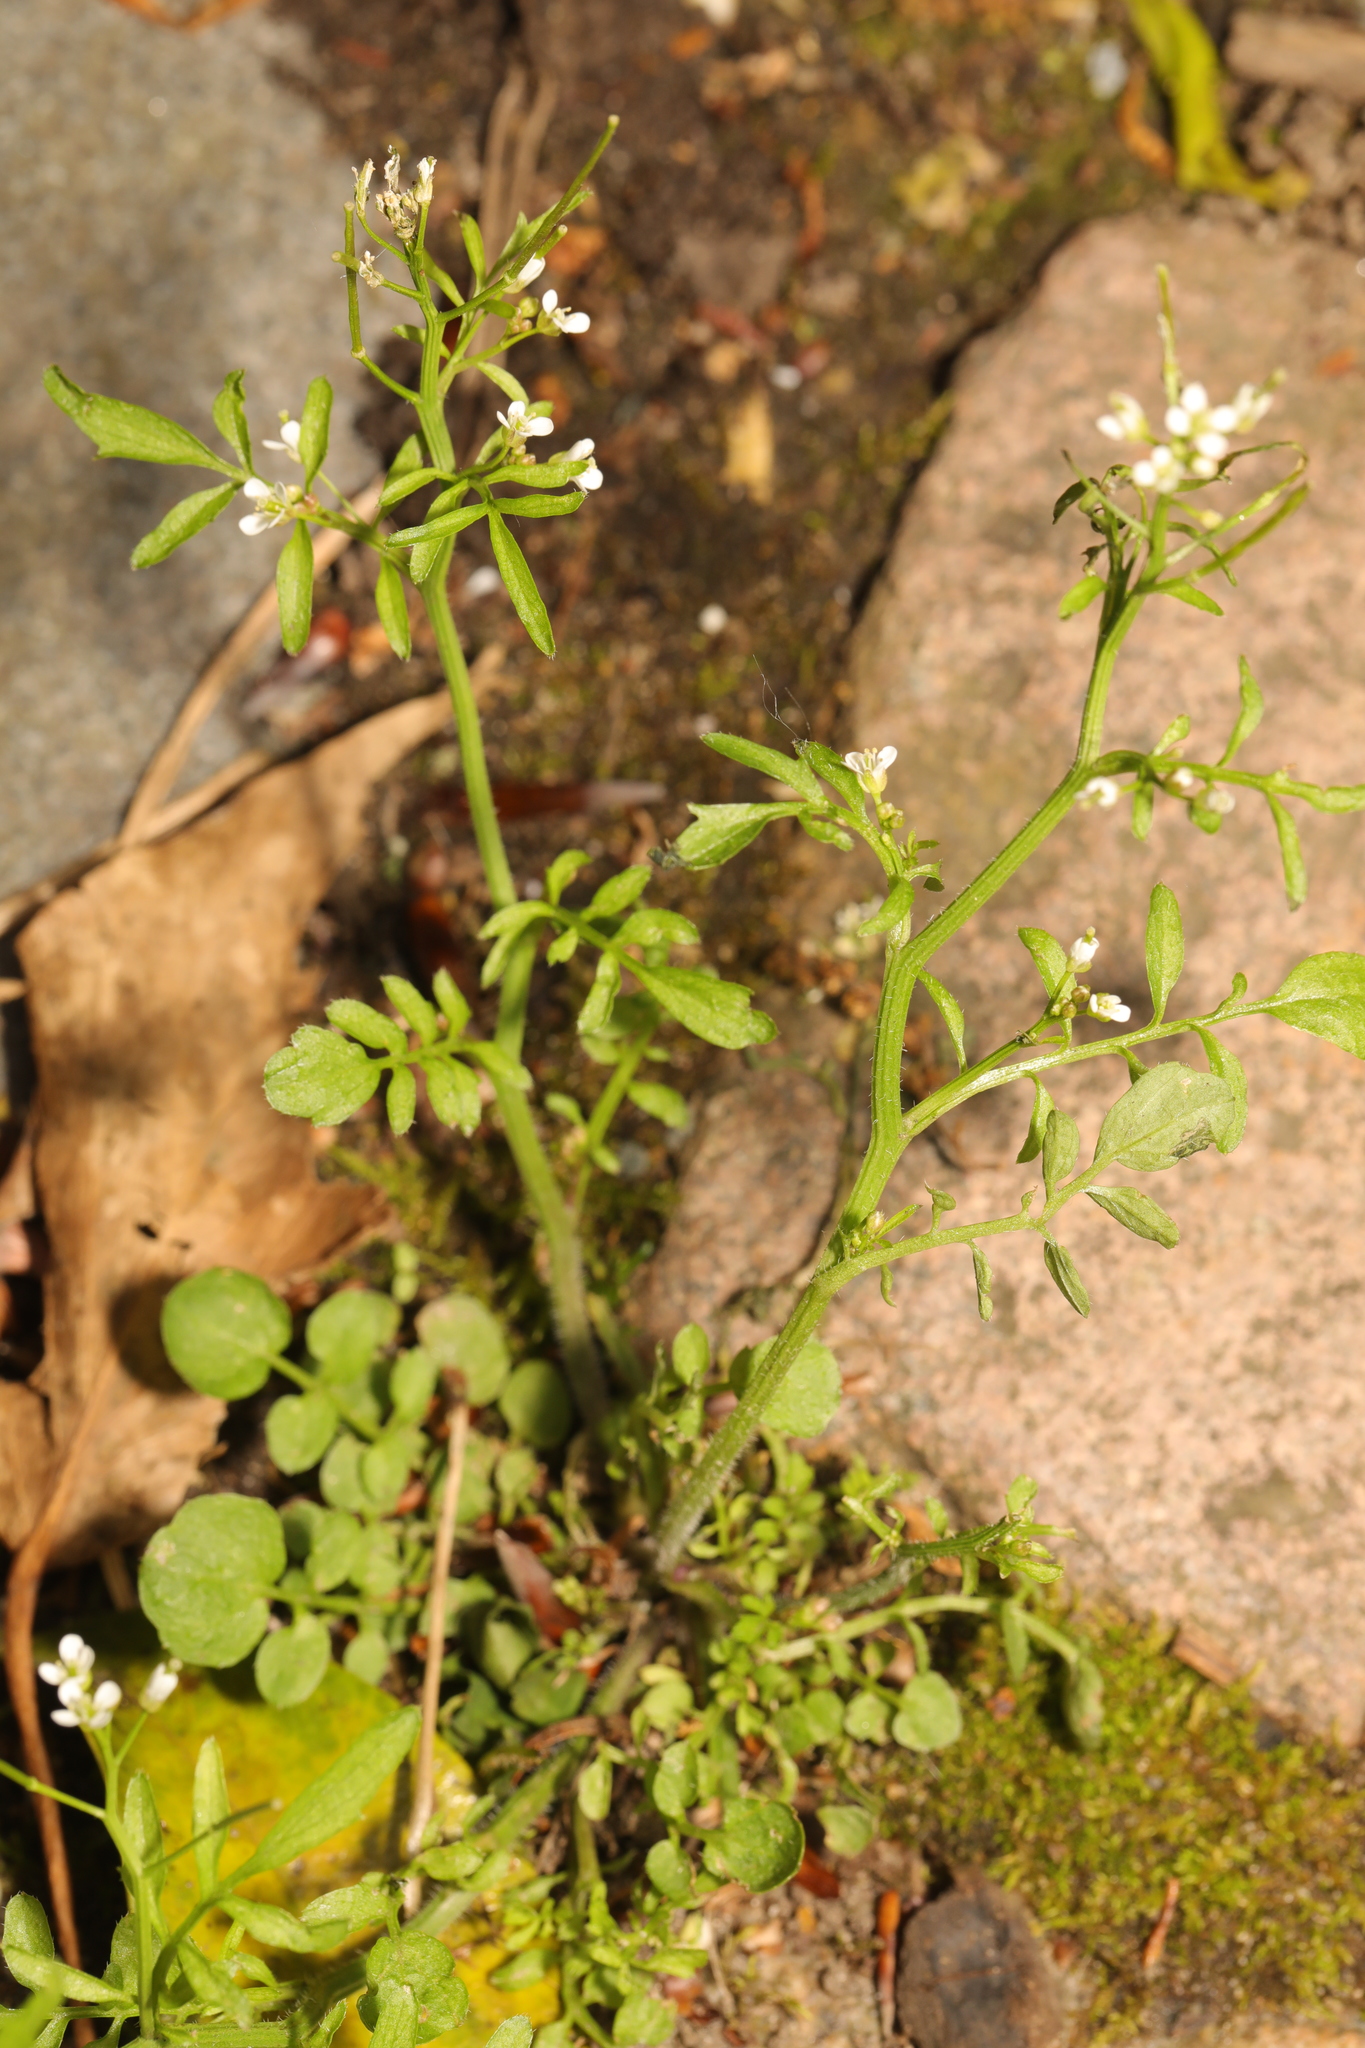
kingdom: Plantae
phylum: Tracheophyta
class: Magnoliopsida
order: Brassicales
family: Brassicaceae
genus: Cardamine
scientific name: Cardamine flexuosa
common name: Woodland bittercress
